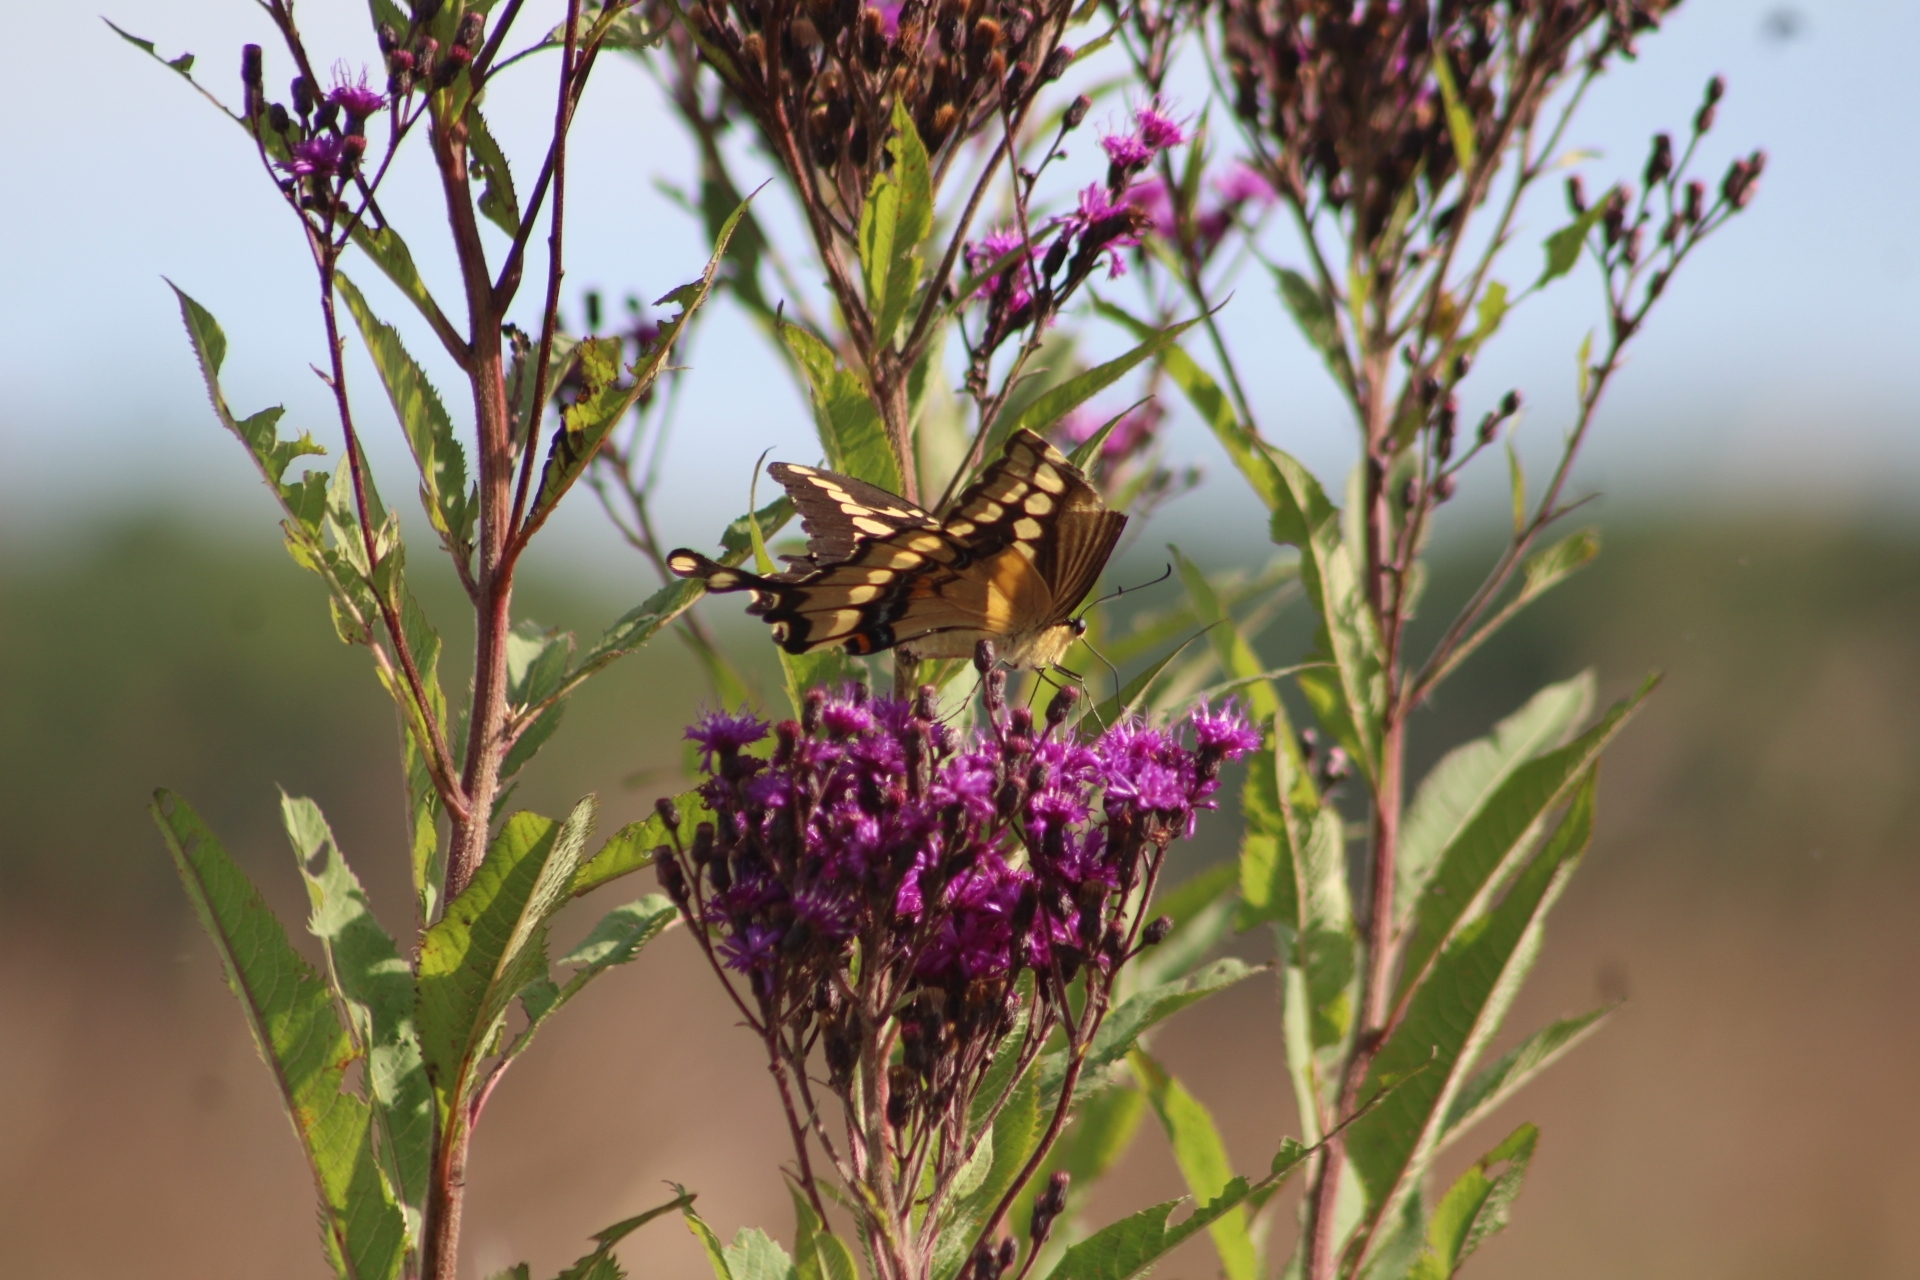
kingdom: Animalia
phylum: Arthropoda
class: Insecta
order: Lepidoptera
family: Papilionidae
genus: Papilio
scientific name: Papilio cresphontes
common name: Giant swallowtail
